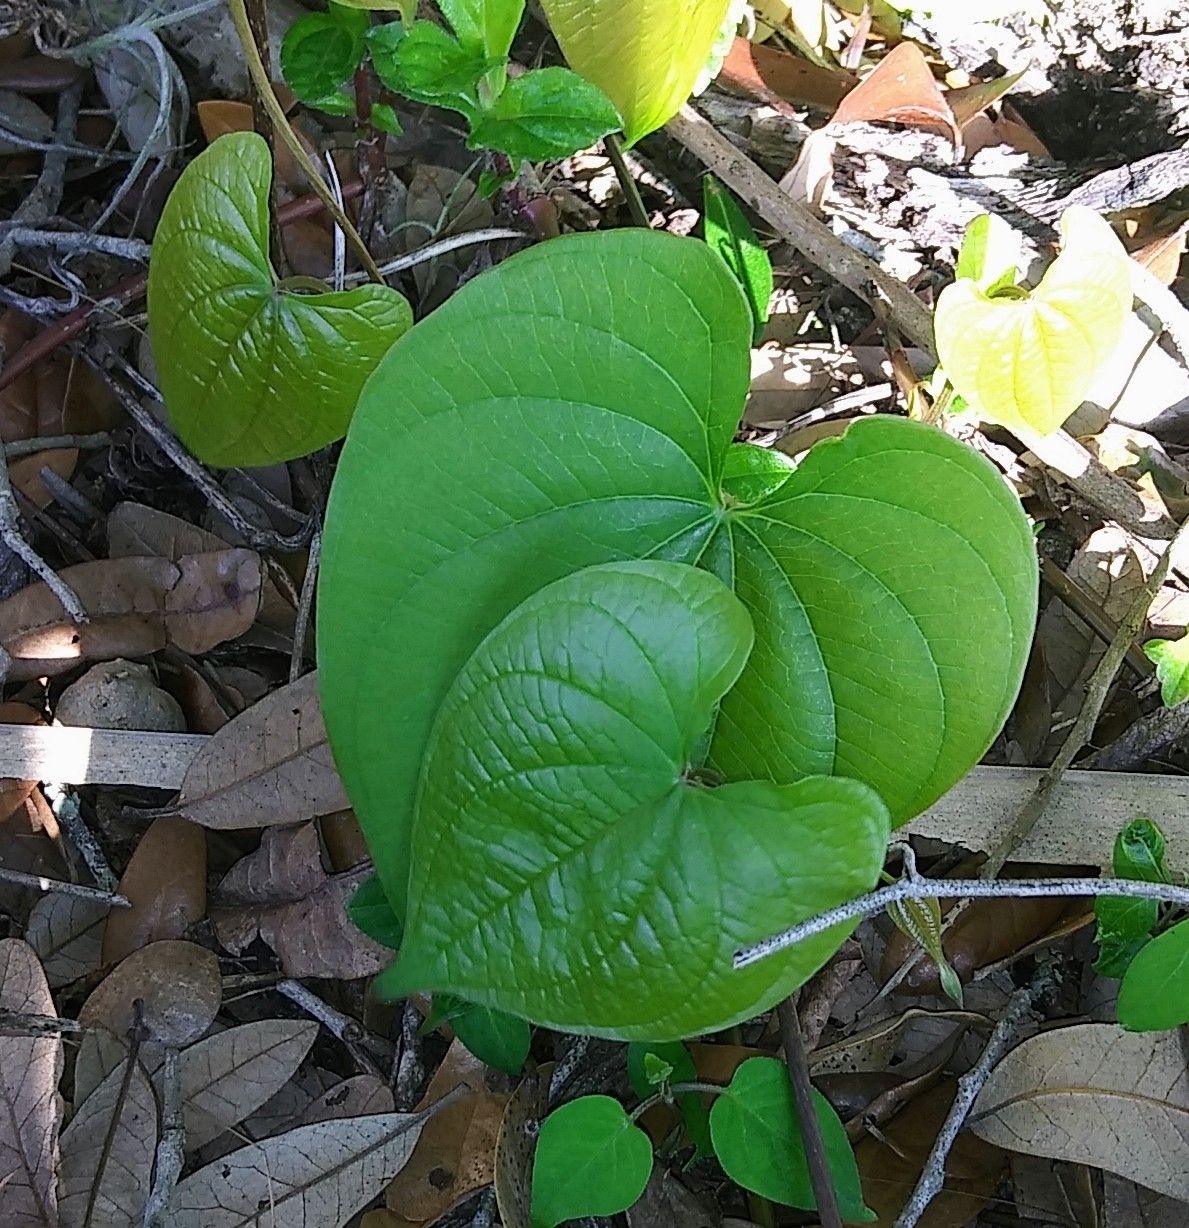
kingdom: Plantae
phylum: Tracheophyta
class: Liliopsida
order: Dioscoreales
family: Dioscoreaceae
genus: Dioscorea
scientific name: Dioscorea bulbifera
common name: Air yam
